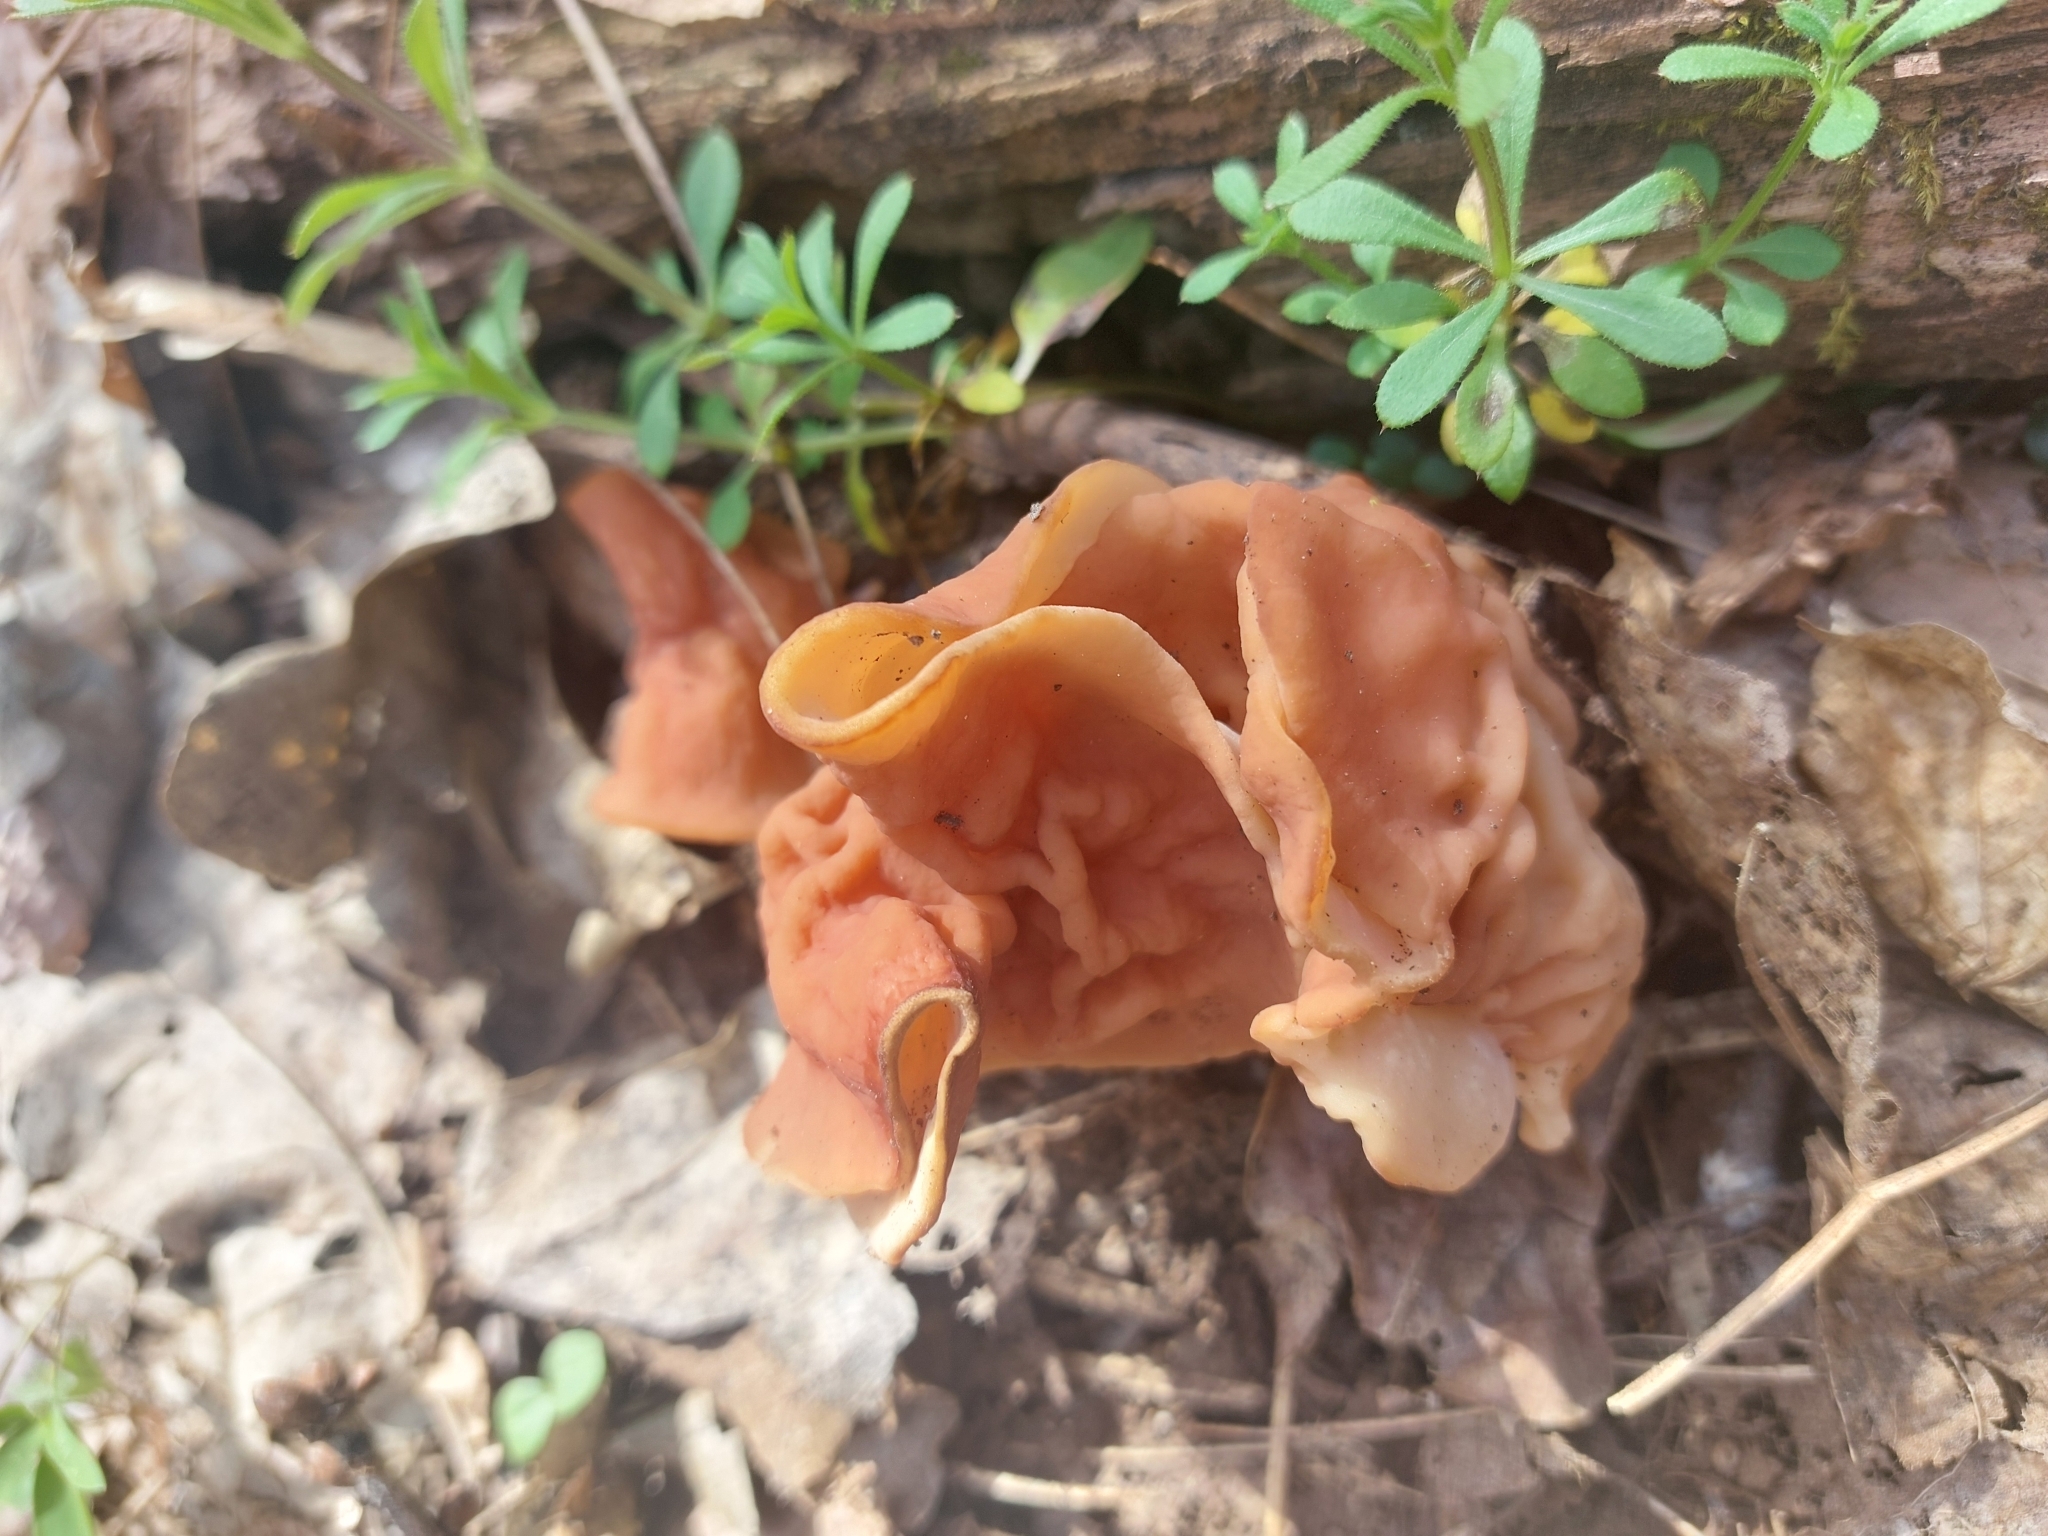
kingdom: Fungi
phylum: Ascomycota
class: Pezizomycetes
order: Pezizales
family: Discinaceae
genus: Discina
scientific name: Discina fastigiata
